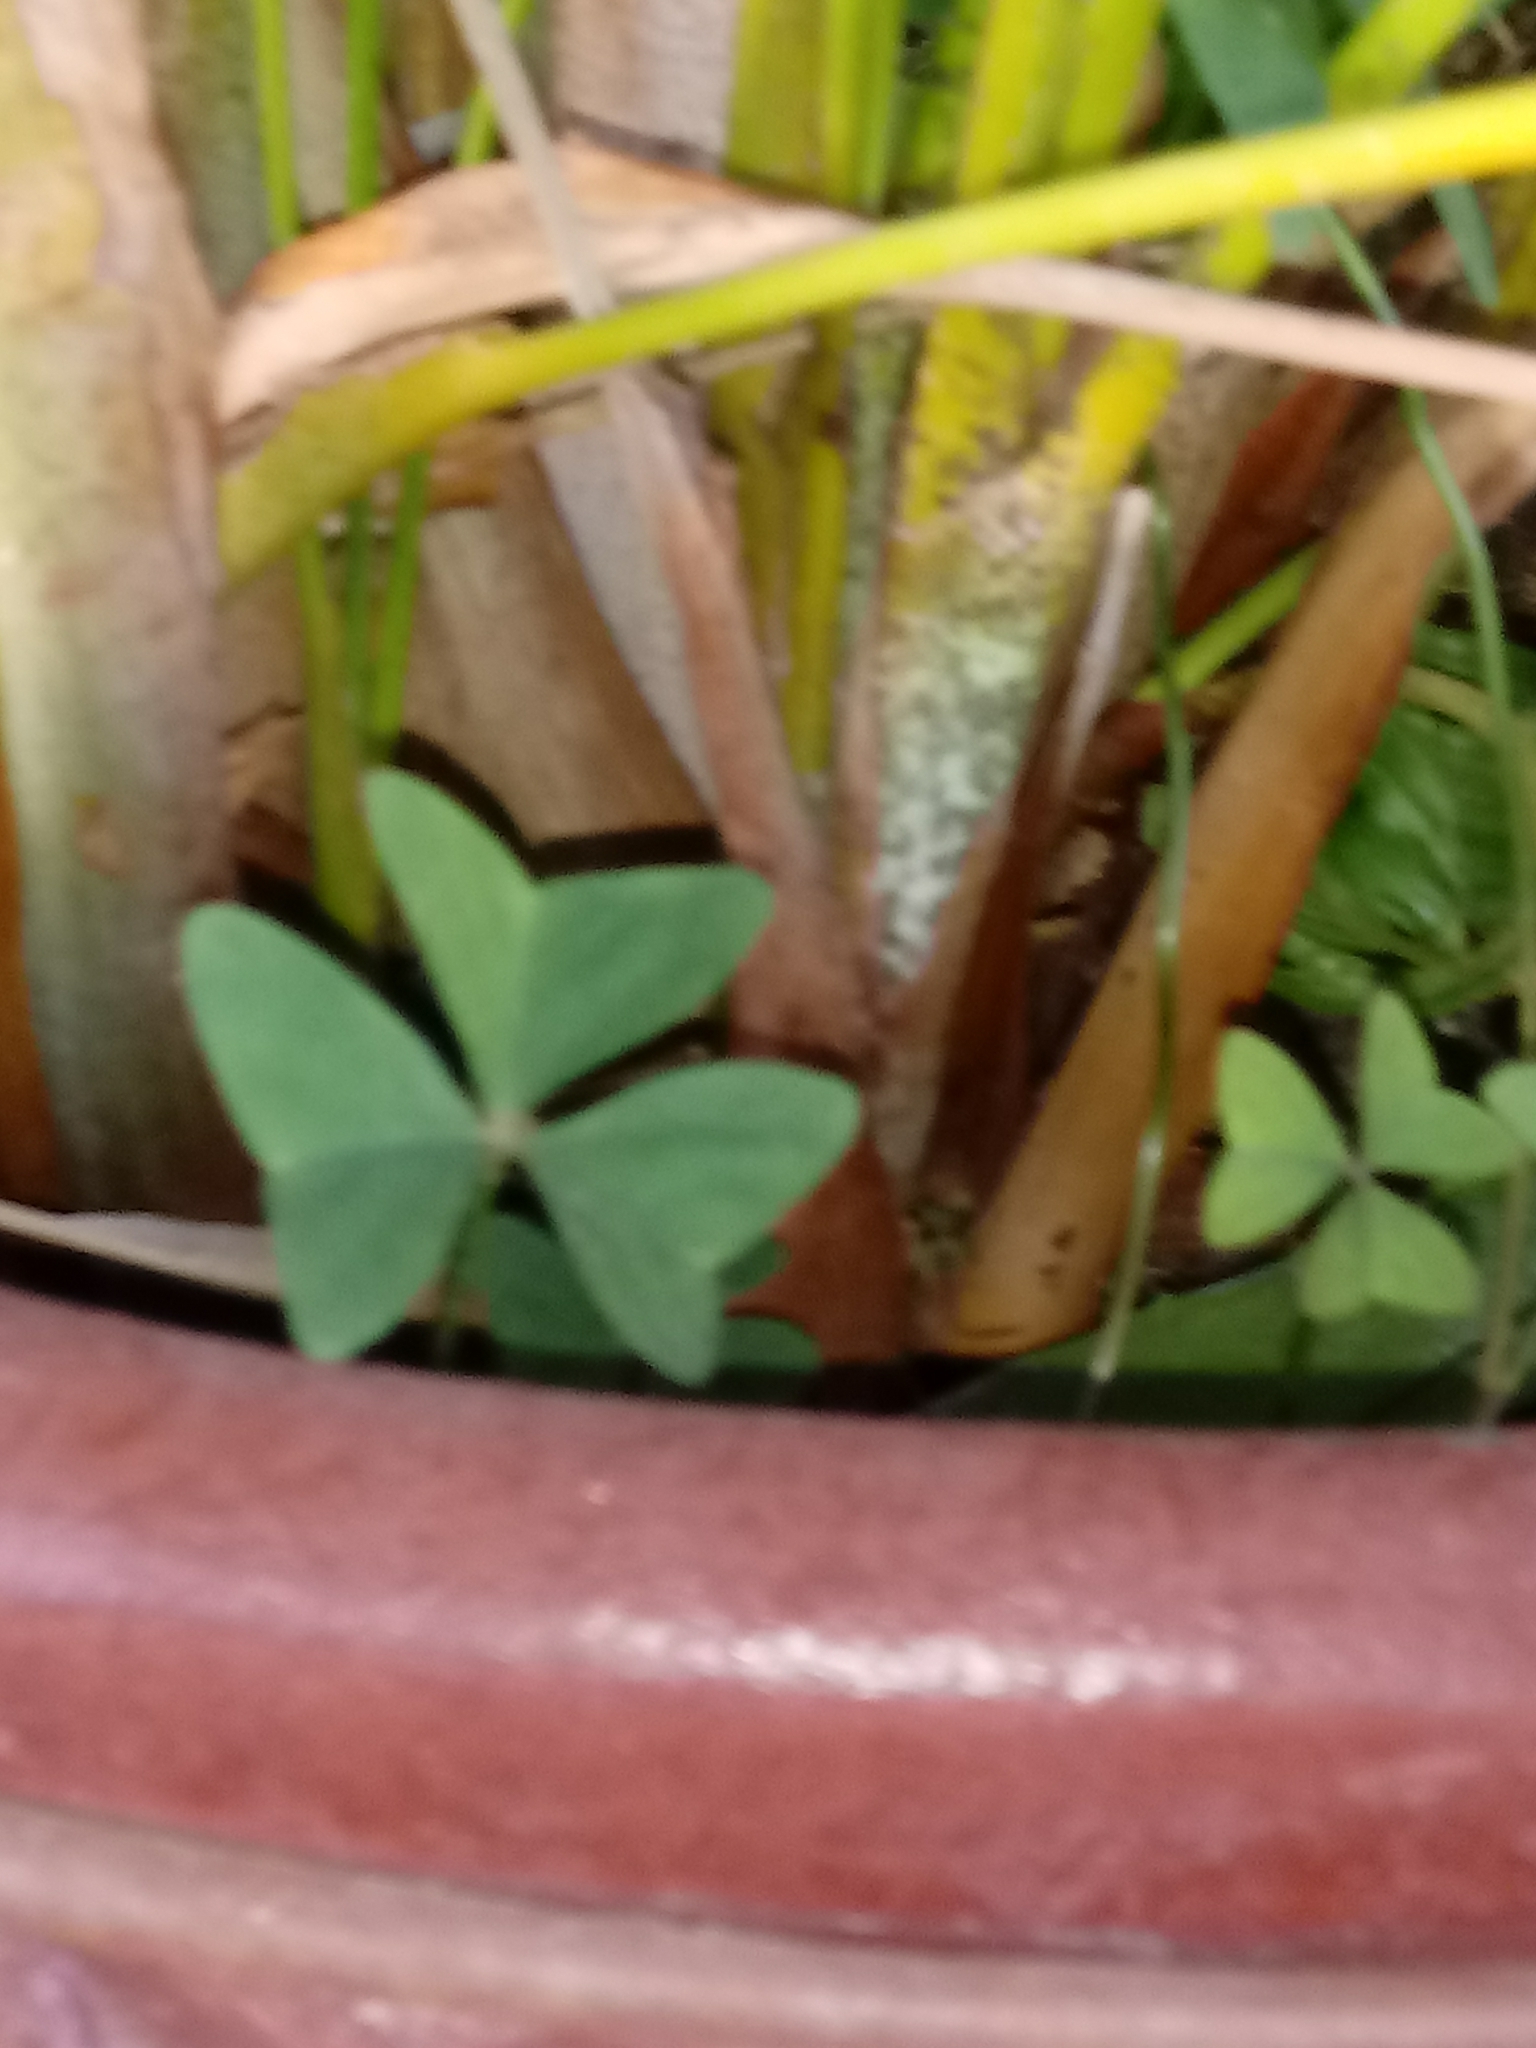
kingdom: Plantae
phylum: Tracheophyta
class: Magnoliopsida
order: Oxalidales
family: Oxalidaceae
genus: Oxalis
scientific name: Oxalis latifolia
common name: Garden pink-sorrel
